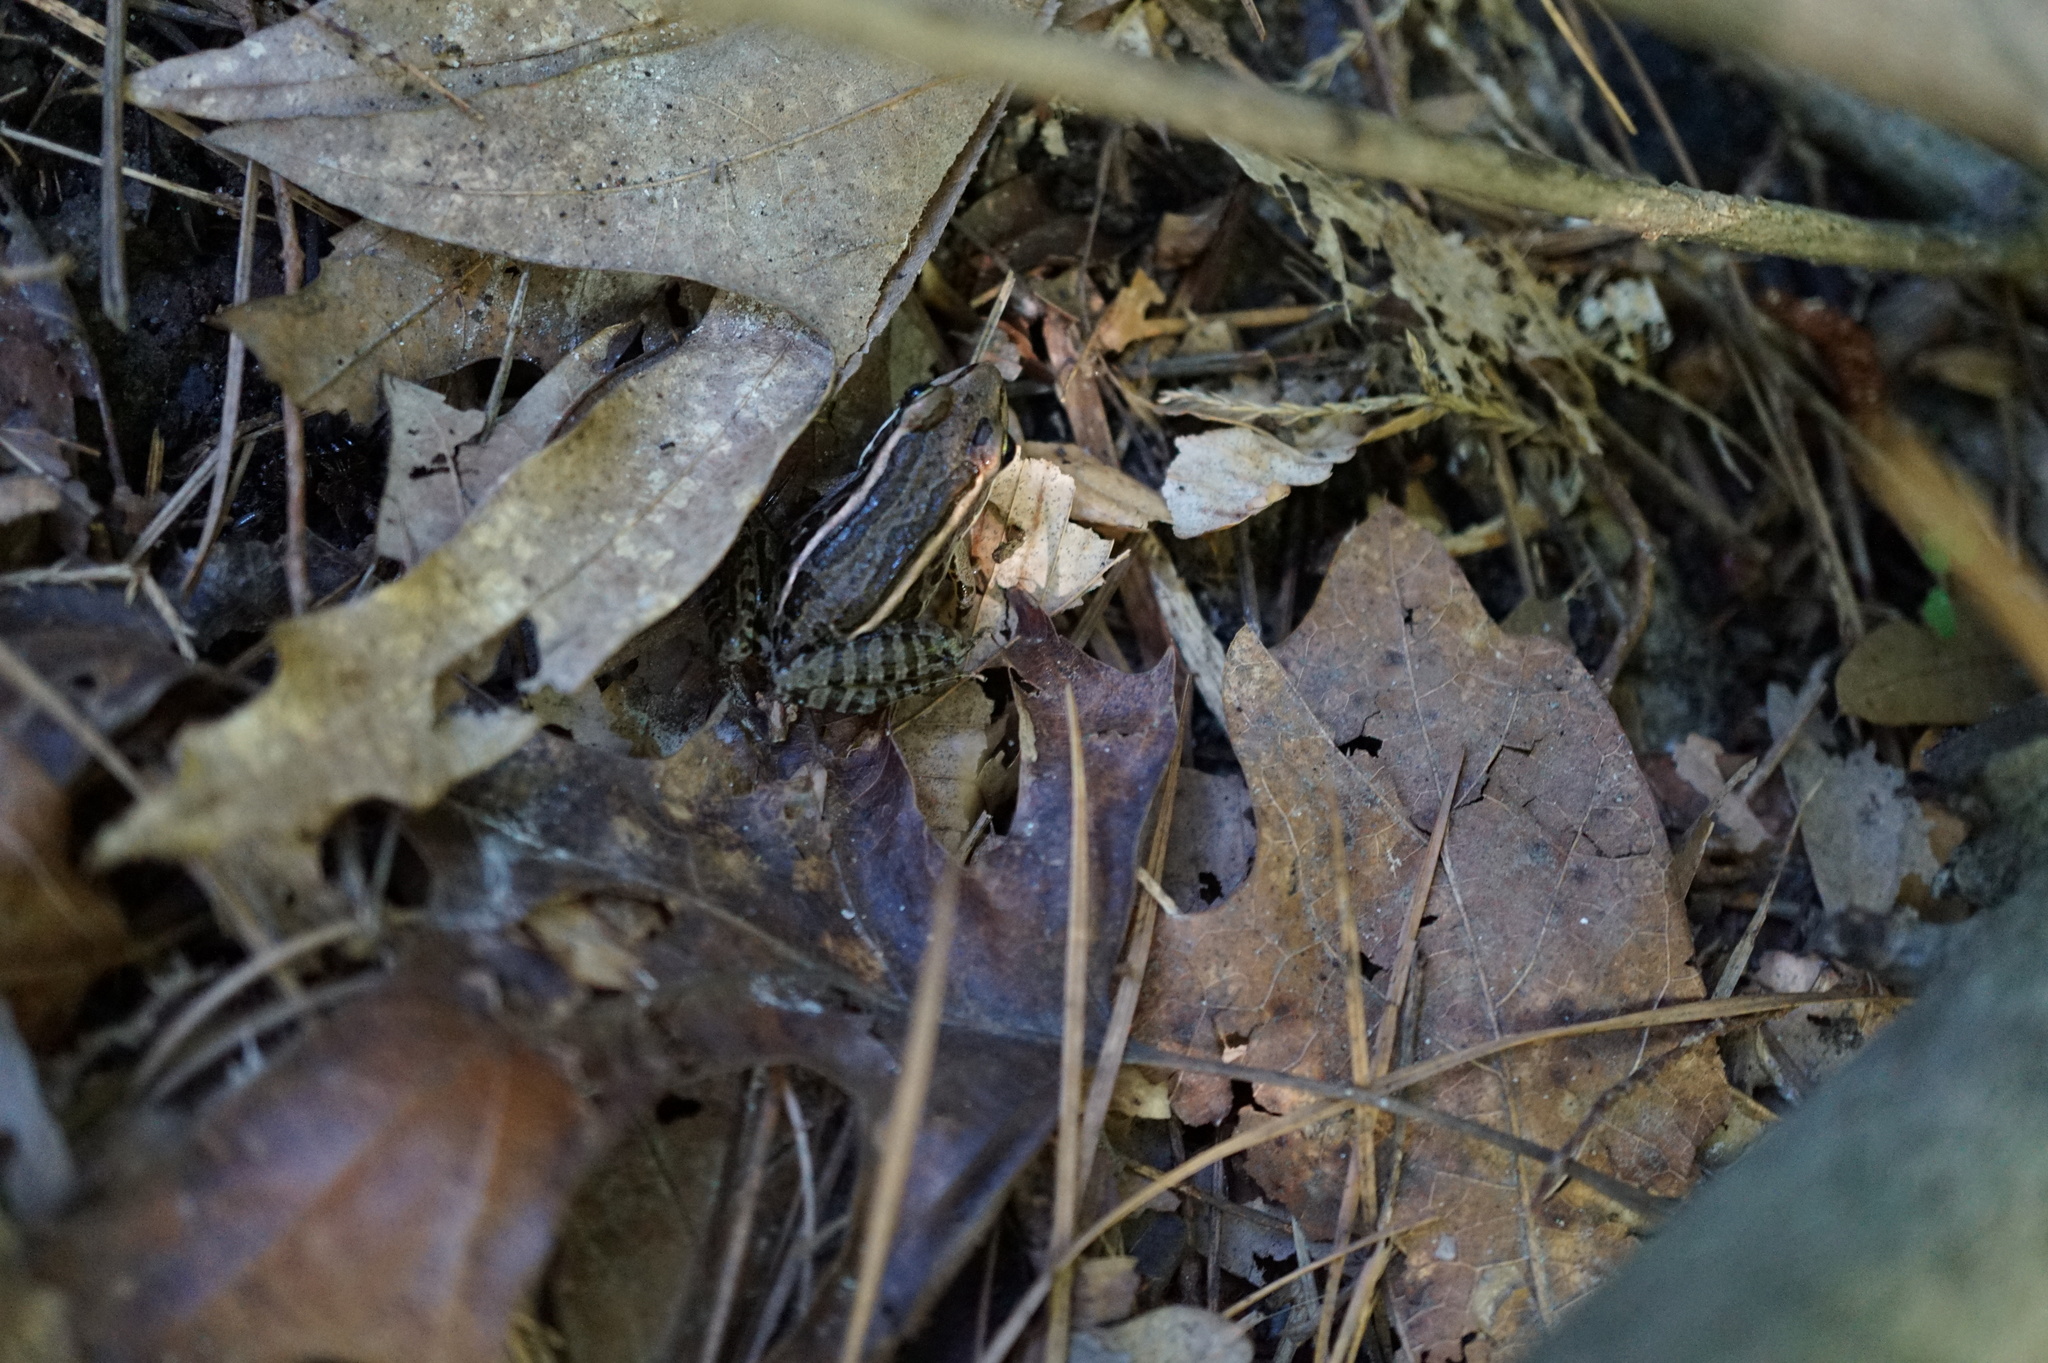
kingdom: Animalia
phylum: Chordata
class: Amphibia
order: Anura
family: Ranidae
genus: Lithobates
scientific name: Lithobates palustris
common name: Pickerel frog
